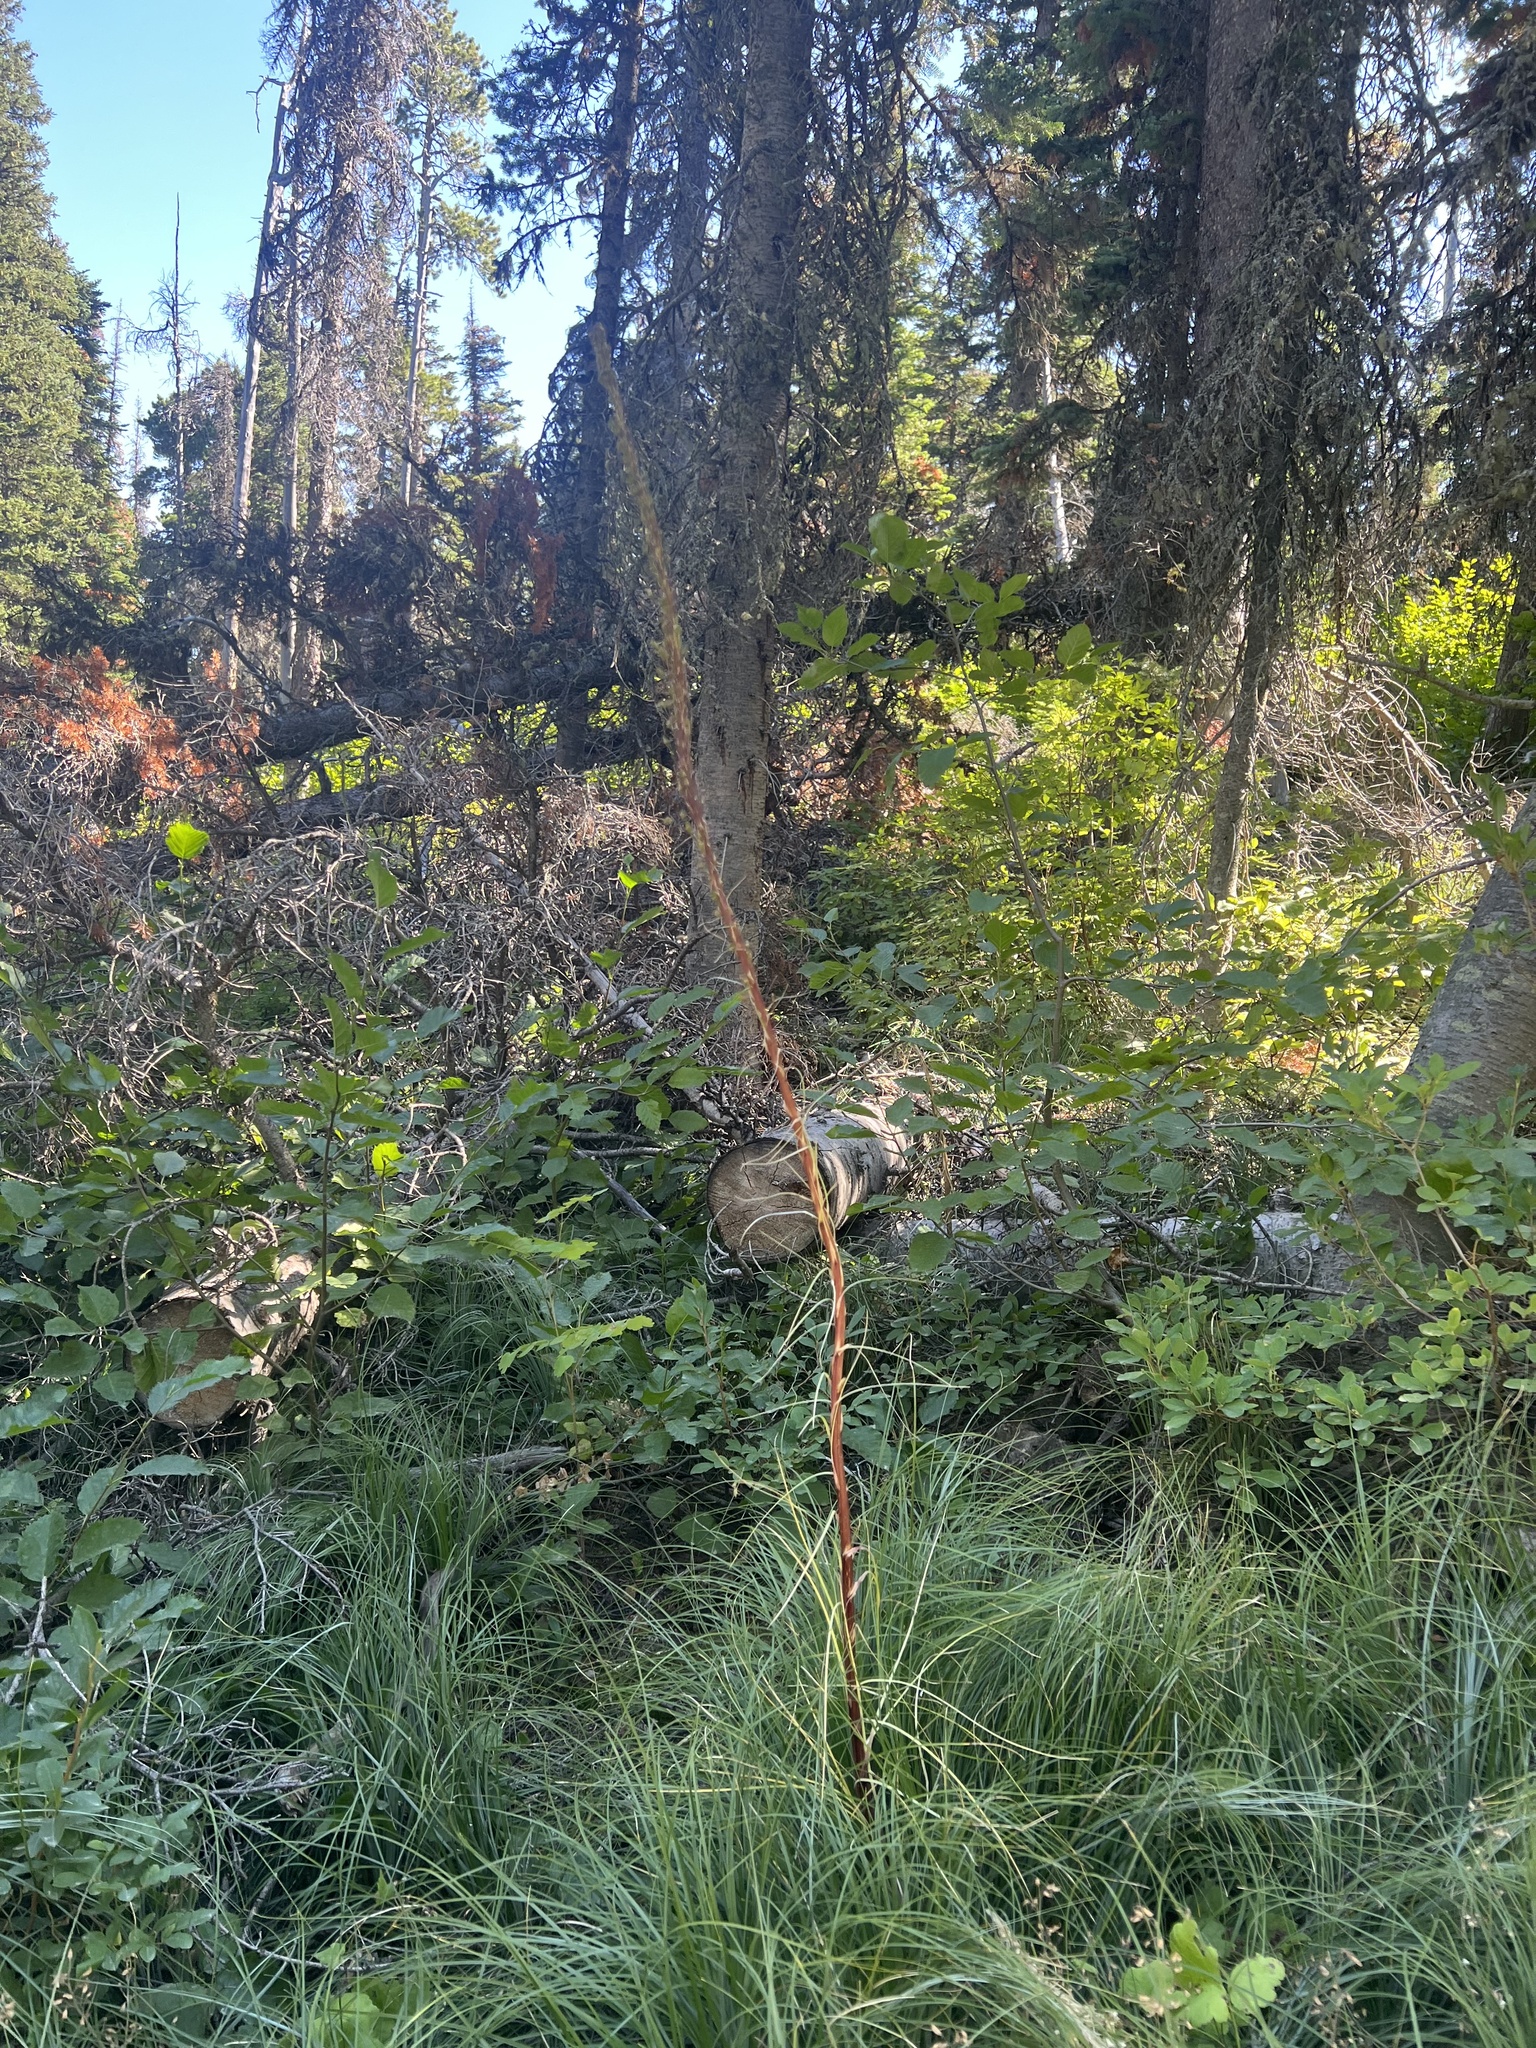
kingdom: Plantae
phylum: Tracheophyta
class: Liliopsida
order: Liliales
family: Melanthiaceae
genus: Xerophyllum
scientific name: Xerophyllum tenax
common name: Bear-grass
